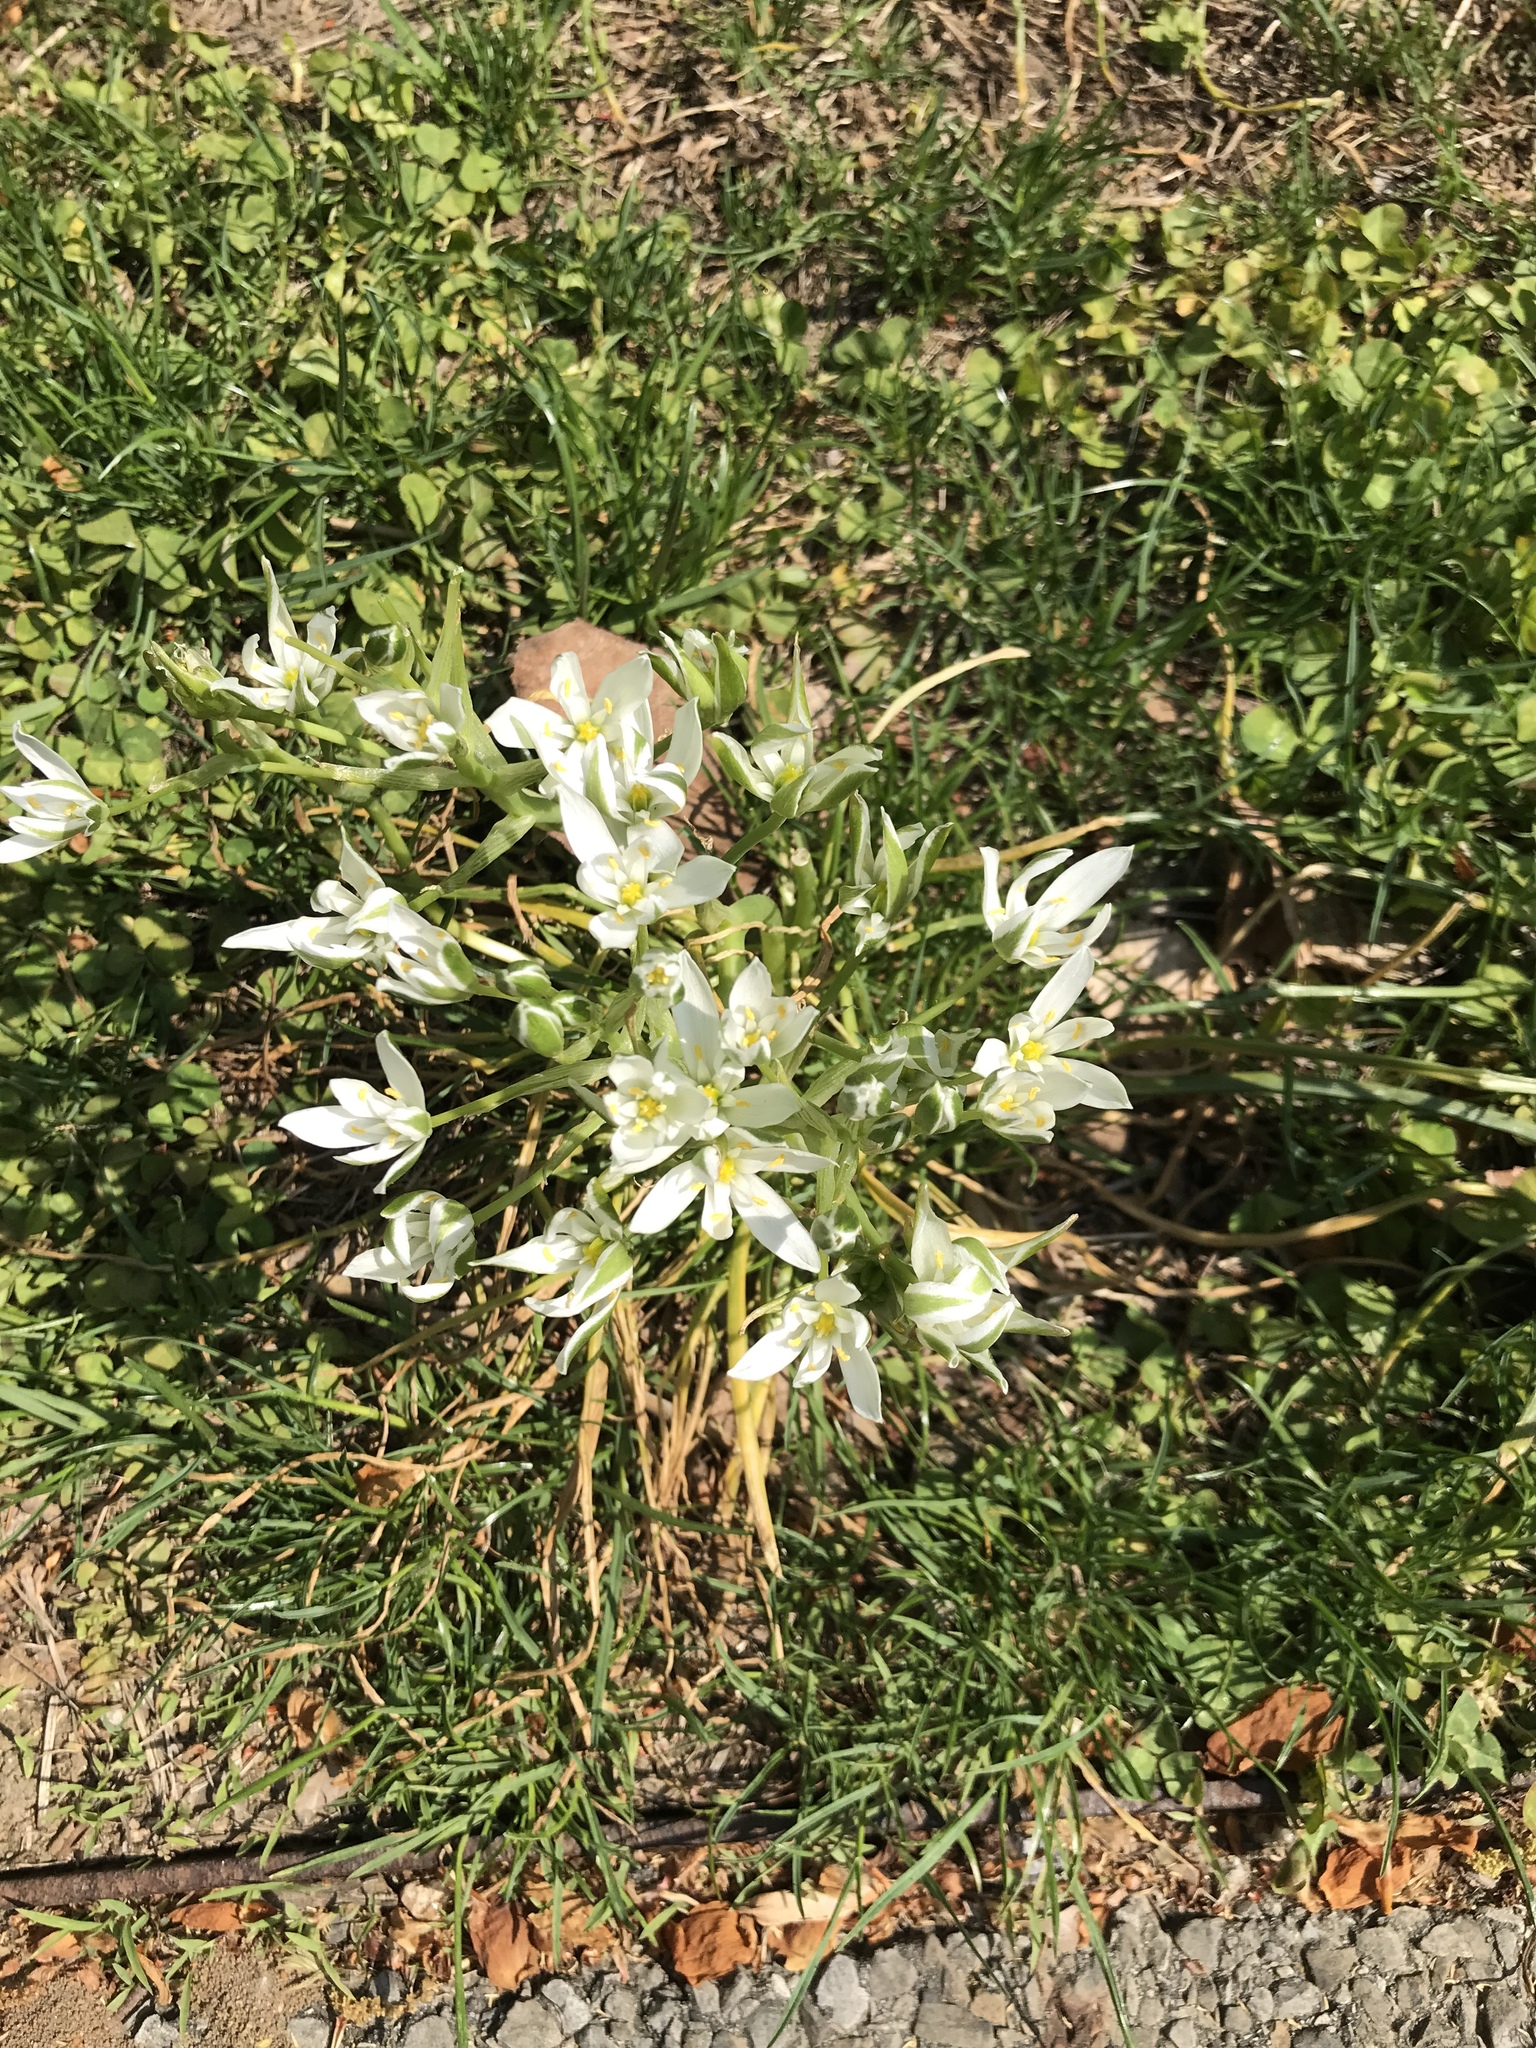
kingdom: Plantae
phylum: Tracheophyta
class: Liliopsida
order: Asparagales
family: Asparagaceae
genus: Ornithogalum
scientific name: Ornithogalum umbellatum
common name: Garden star-of-bethlehem
